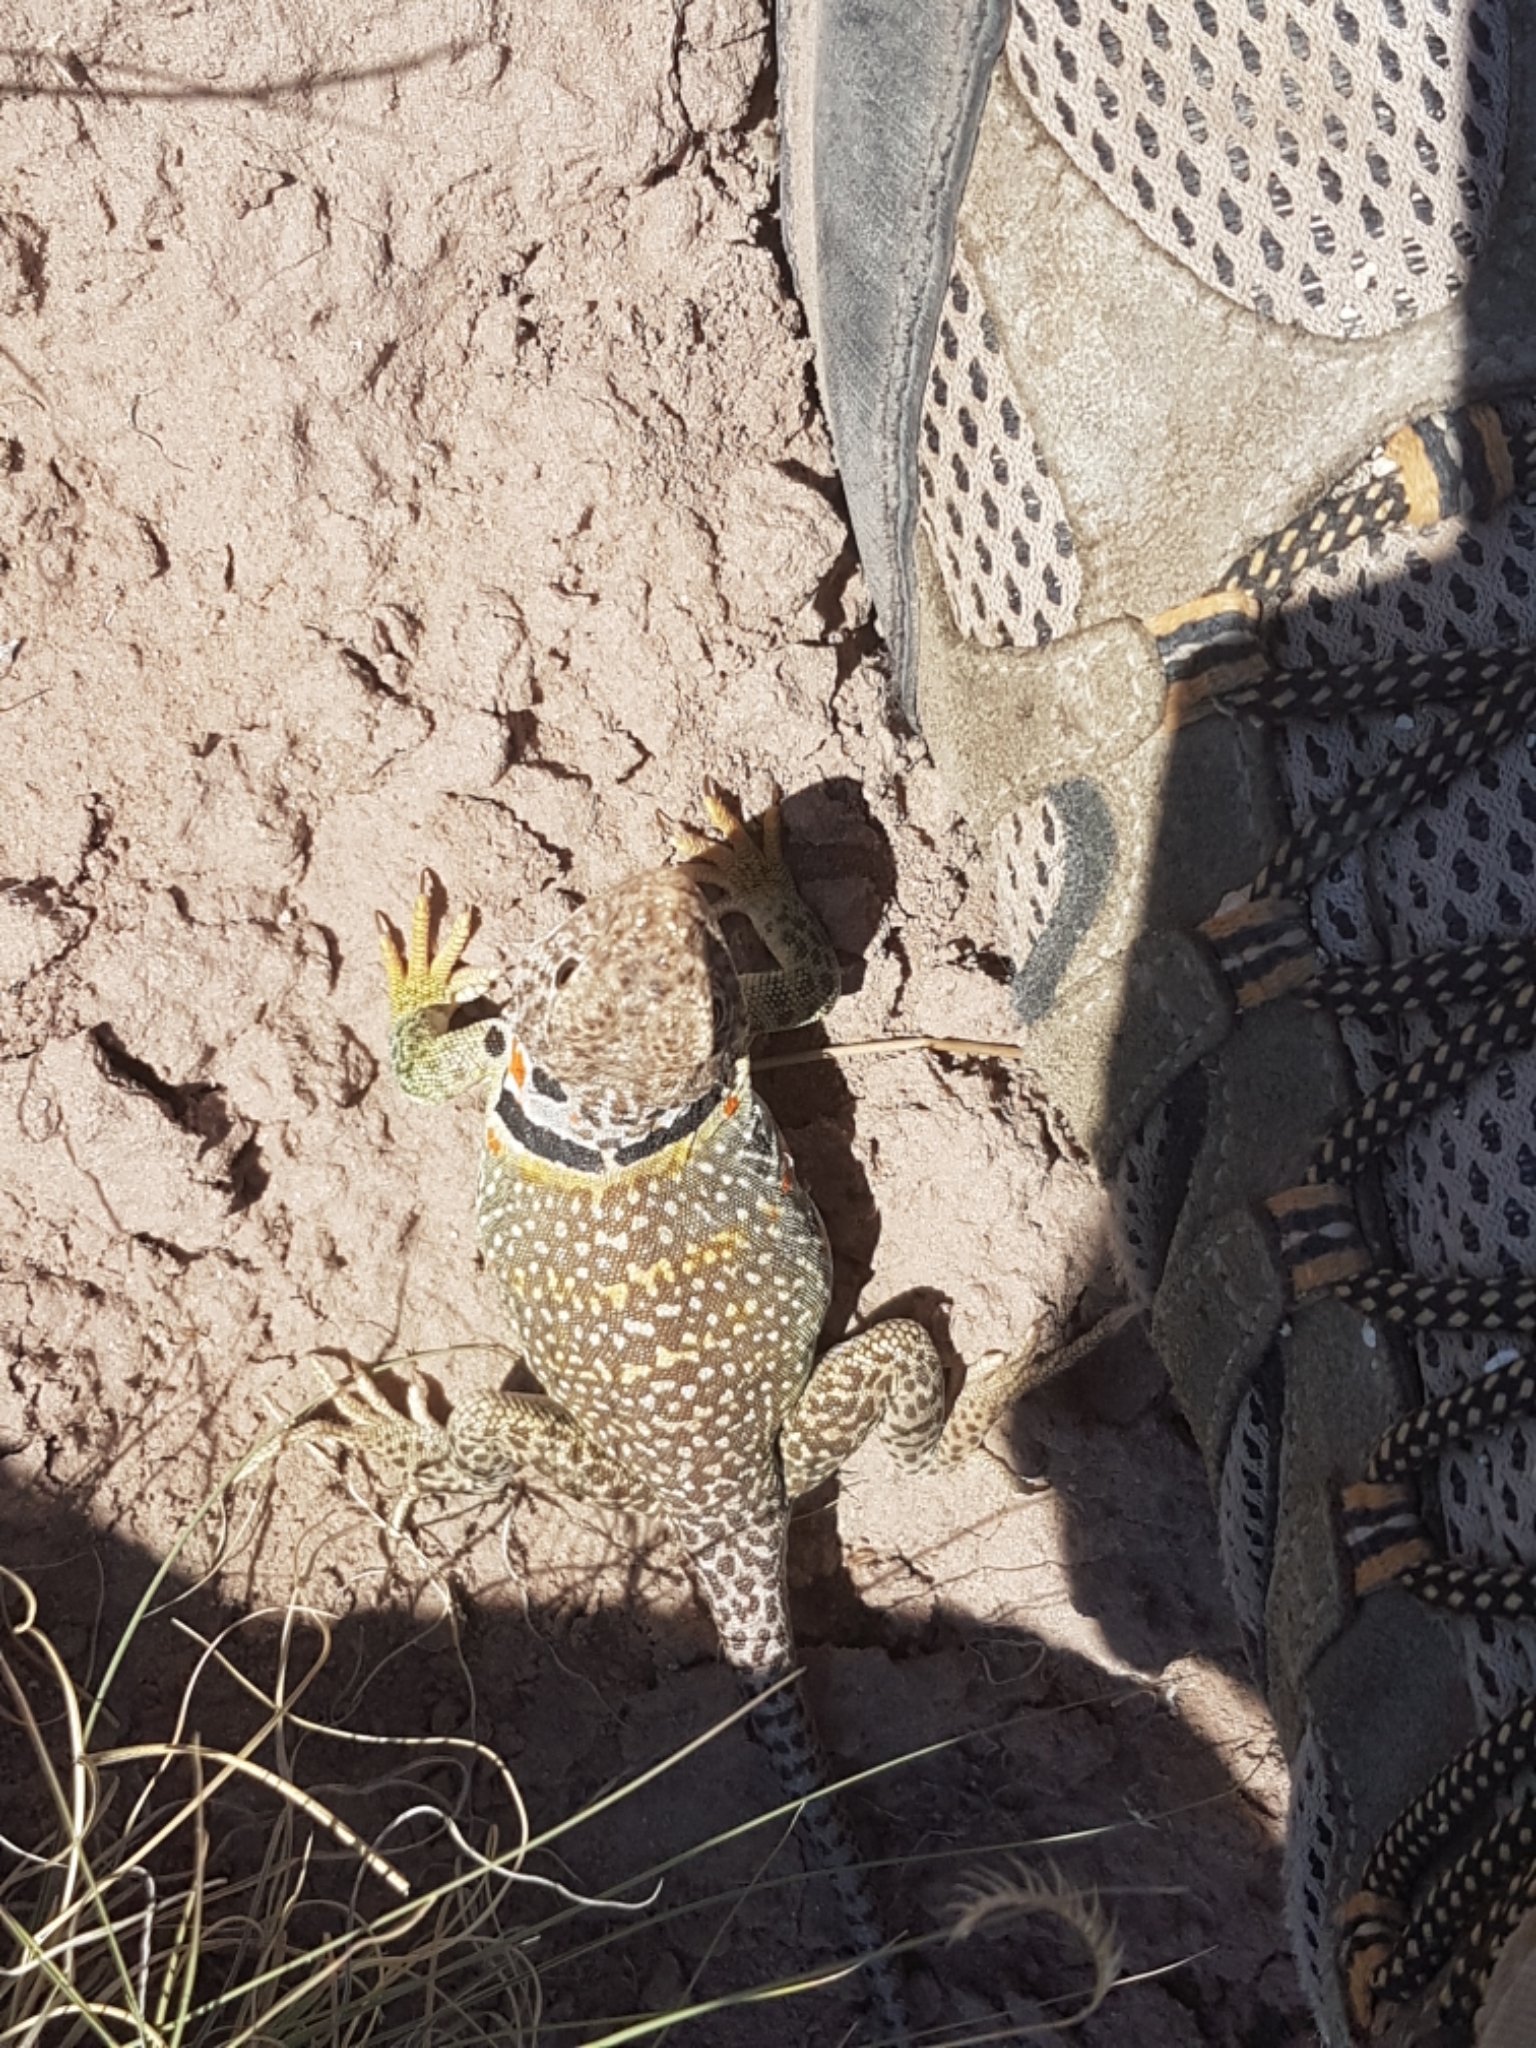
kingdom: Animalia
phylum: Chordata
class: Squamata
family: Crotaphytidae
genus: Crotaphytus
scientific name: Crotaphytus collaris
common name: Collared lizard
